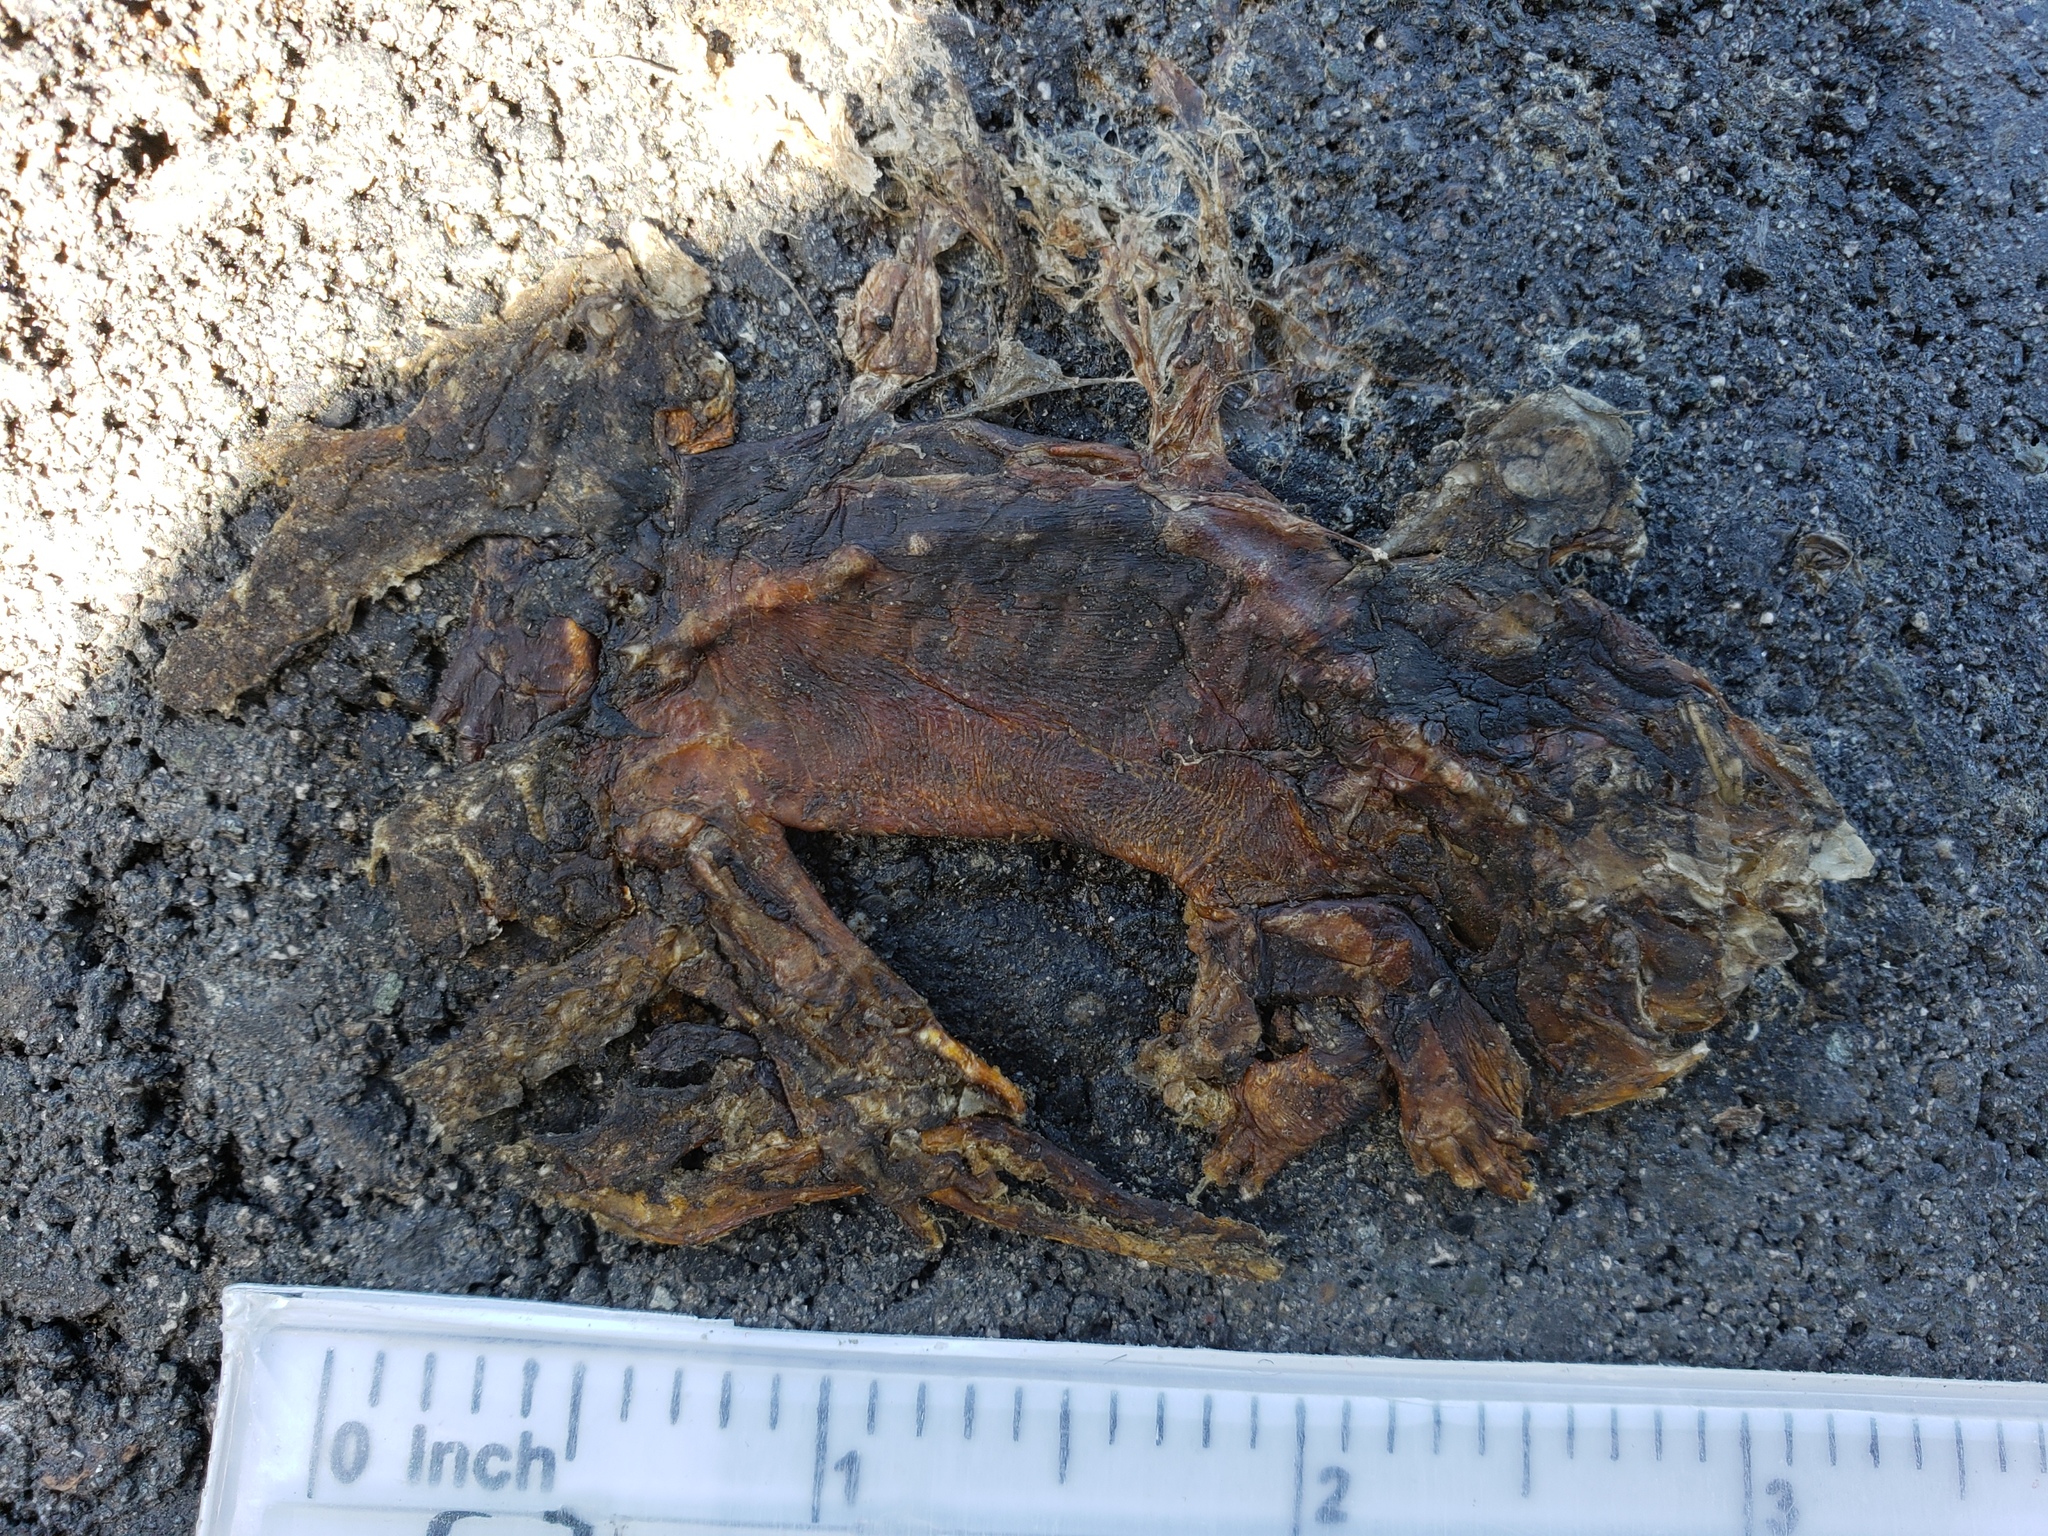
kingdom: Animalia
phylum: Chordata
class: Amphibia
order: Caudata
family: Salamandridae
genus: Taricha
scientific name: Taricha
